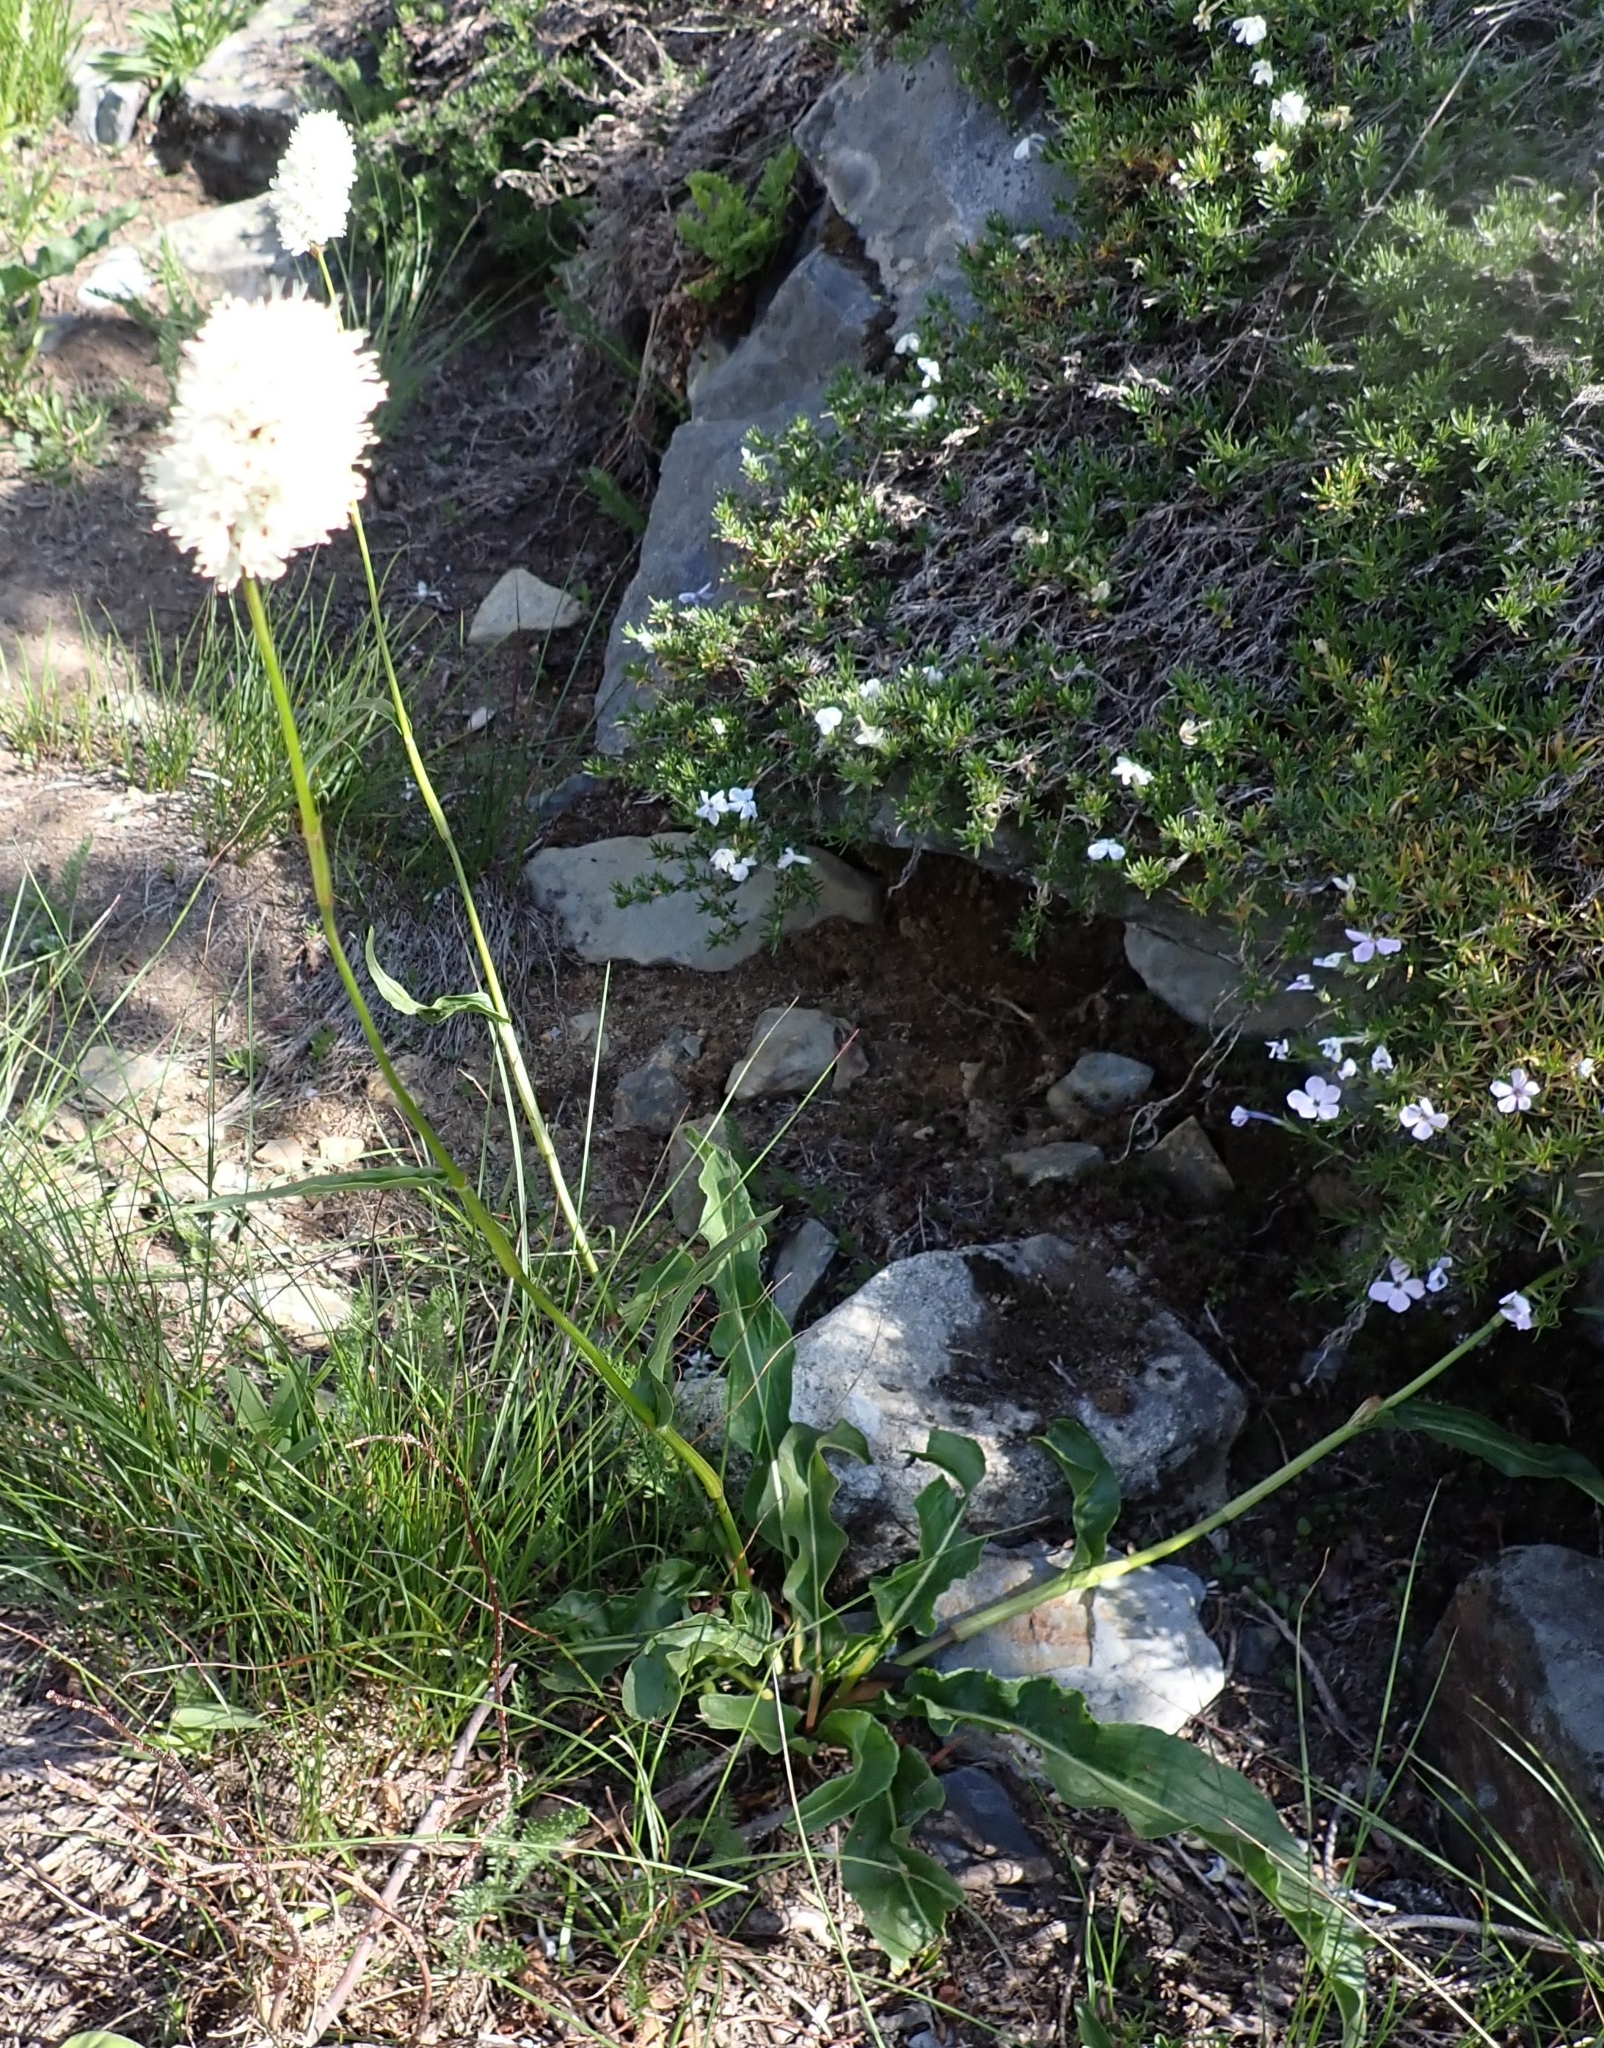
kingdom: Plantae
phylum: Tracheophyta
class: Magnoliopsida
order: Caryophyllales
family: Polygonaceae
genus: Bistorta
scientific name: Bistorta bistortoides
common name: American bistort
